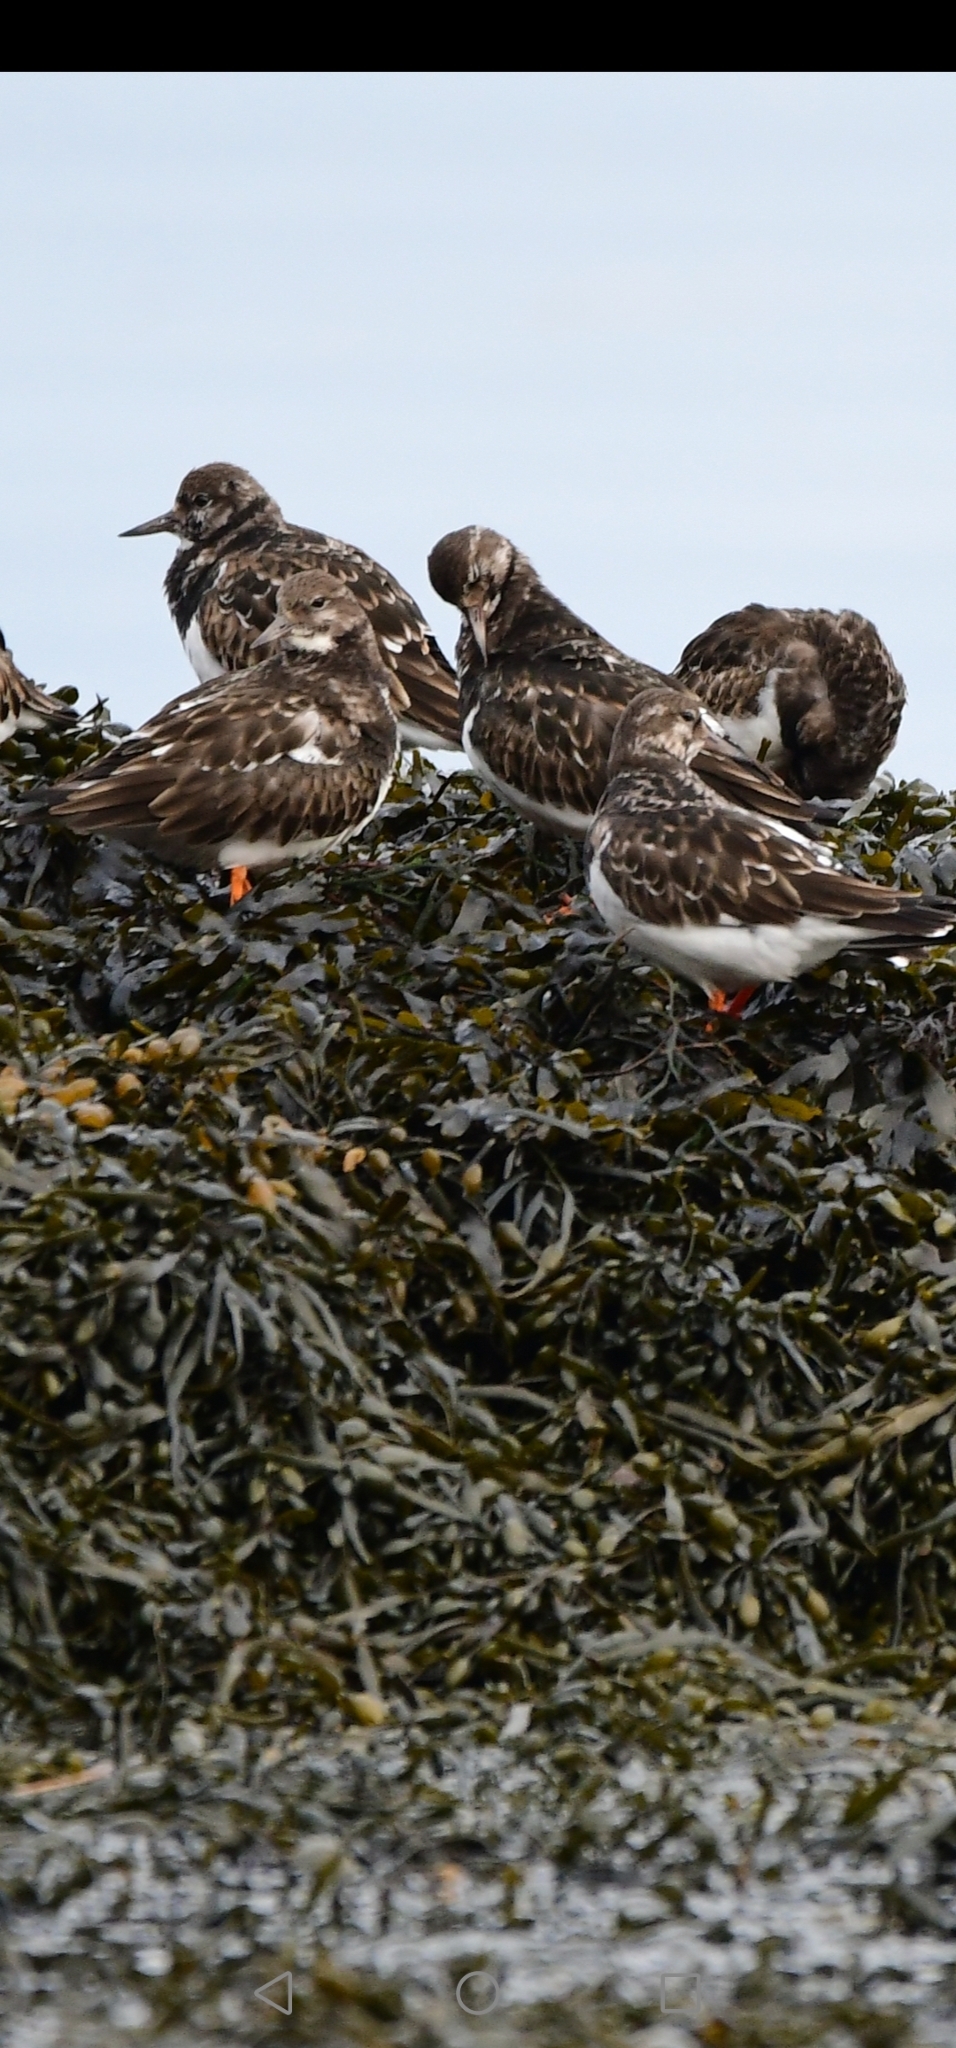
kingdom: Animalia
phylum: Chordata
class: Aves
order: Charadriiformes
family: Scolopacidae
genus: Arenaria
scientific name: Arenaria interpres
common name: Ruddy turnstone
